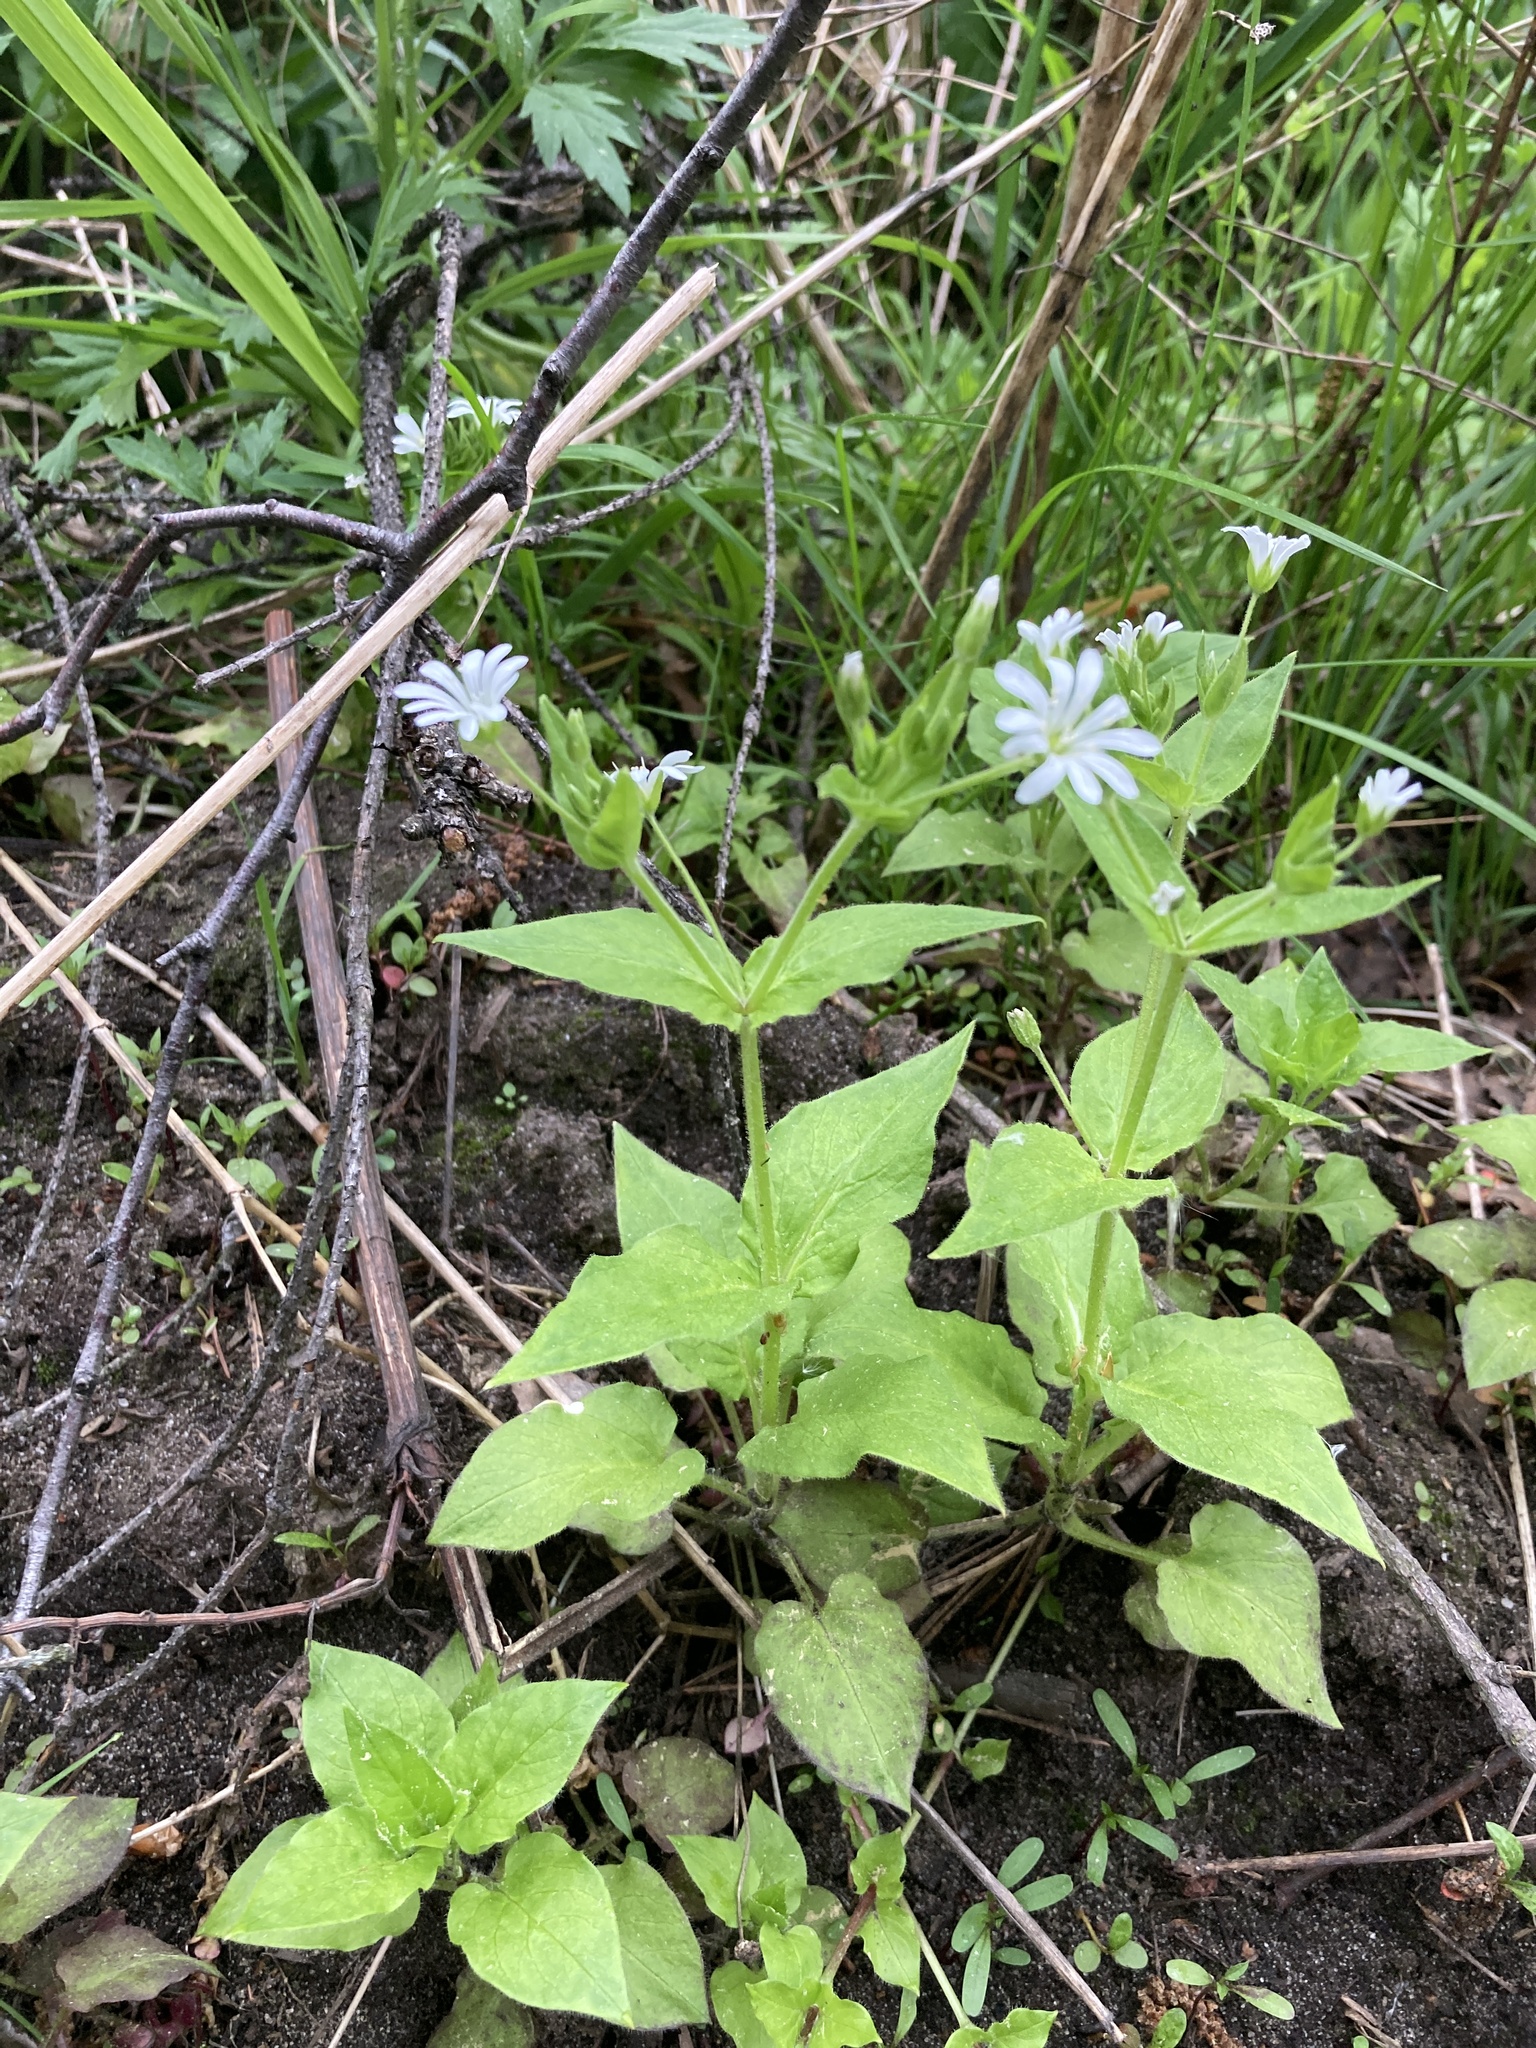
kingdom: Plantae
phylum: Tracheophyta
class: Magnoliopsida
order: Caryophyllales
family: Caryophyllaceae
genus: Stellaria
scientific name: Stellaria nemorum
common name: Wood stitchwort
